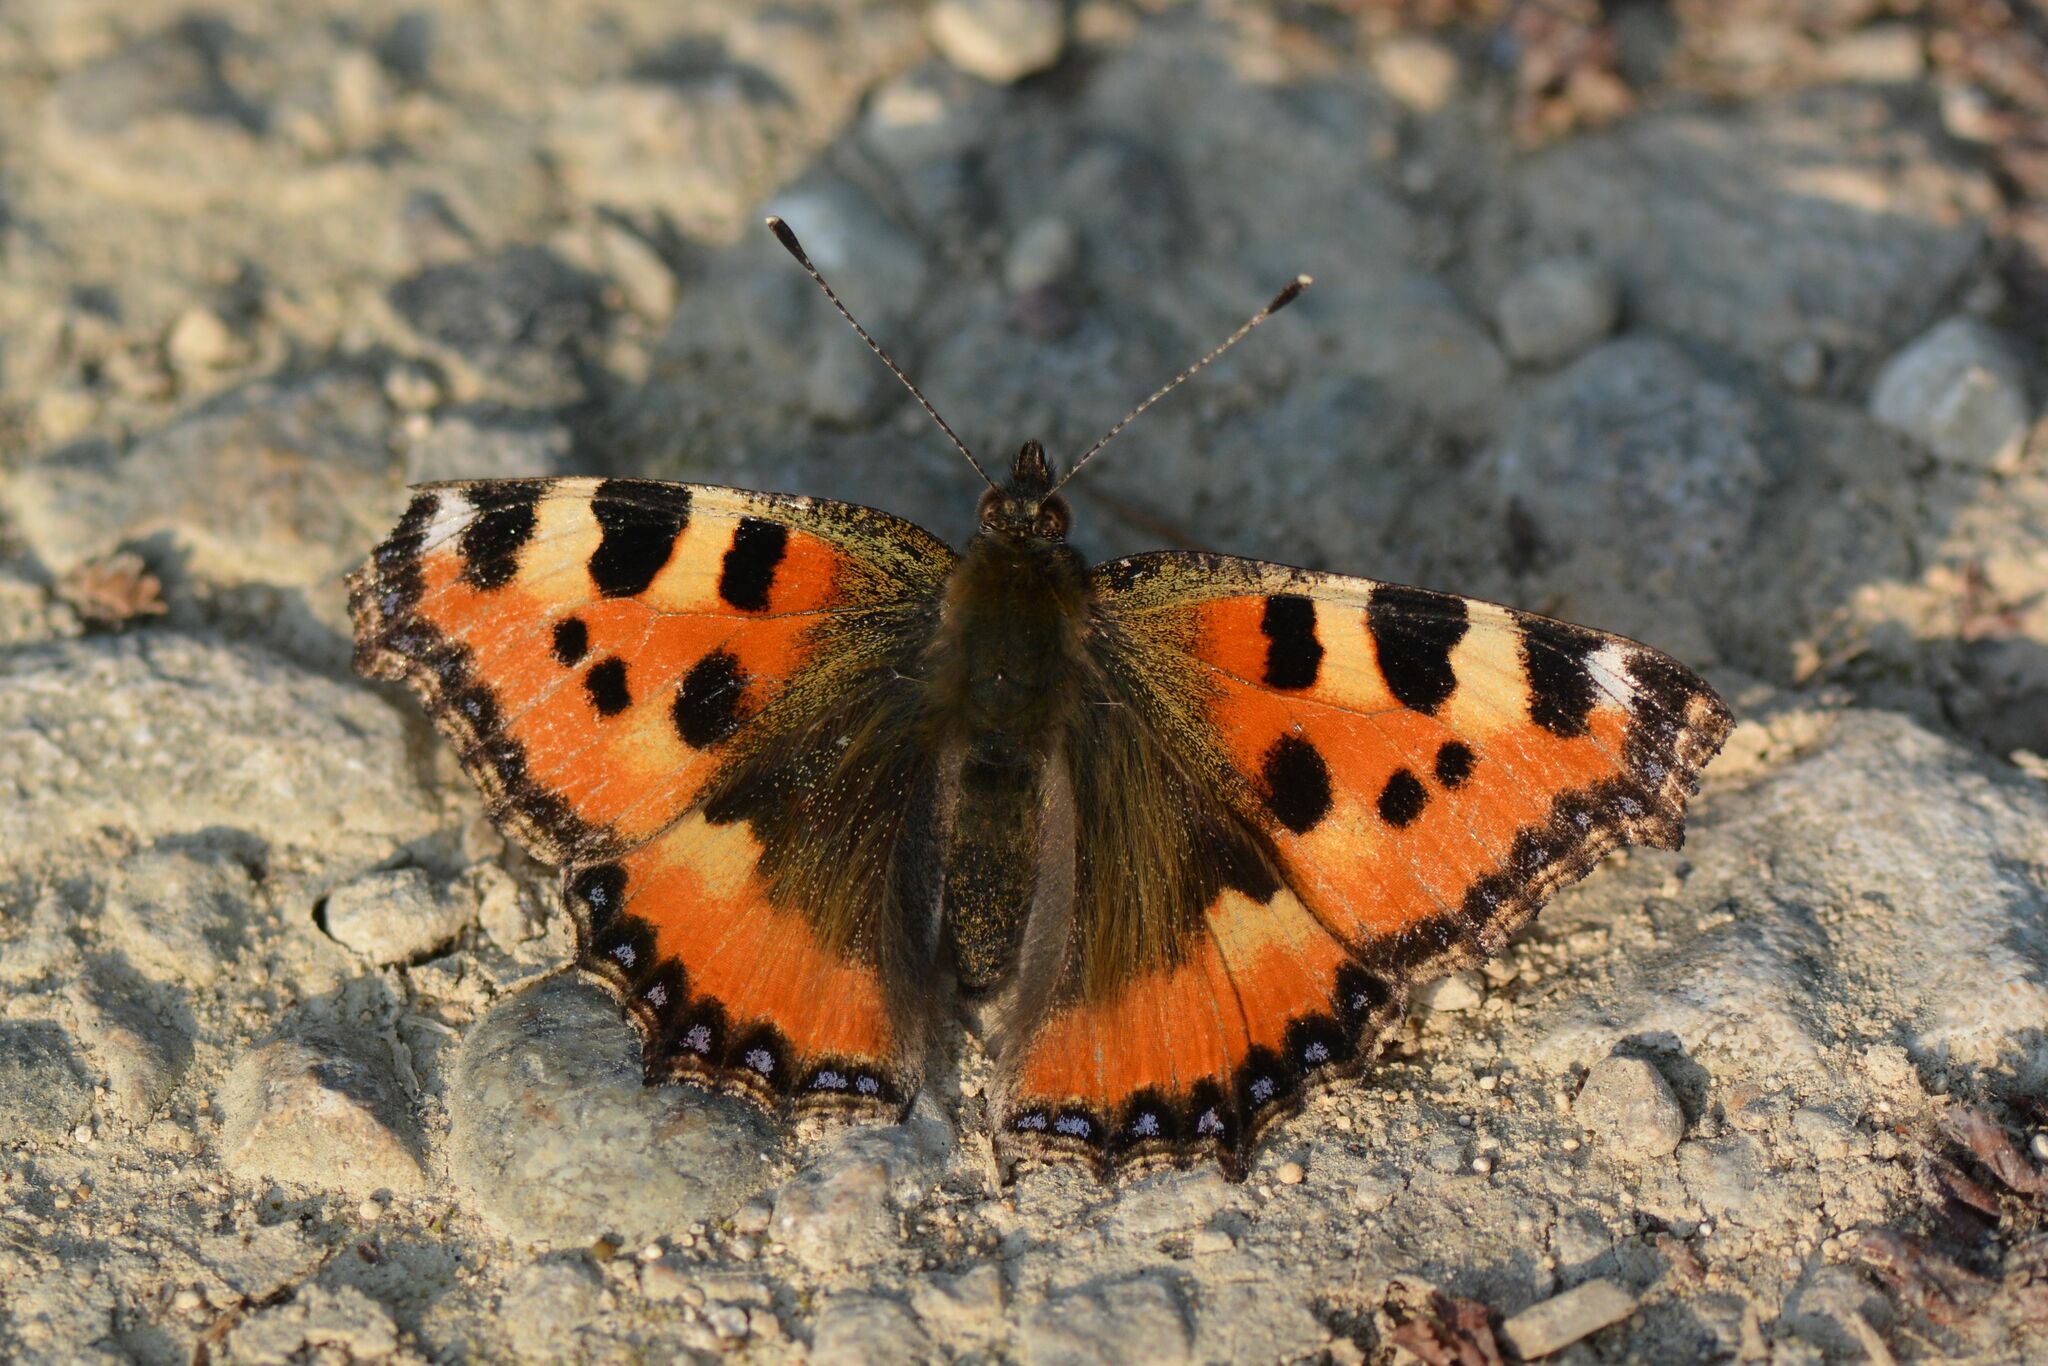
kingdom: Animalia
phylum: Arthropoda
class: Insecta
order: Lepidoptera
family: Nymphalidae
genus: Aglais
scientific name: Aglais urticae
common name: Small tortoiseshell
